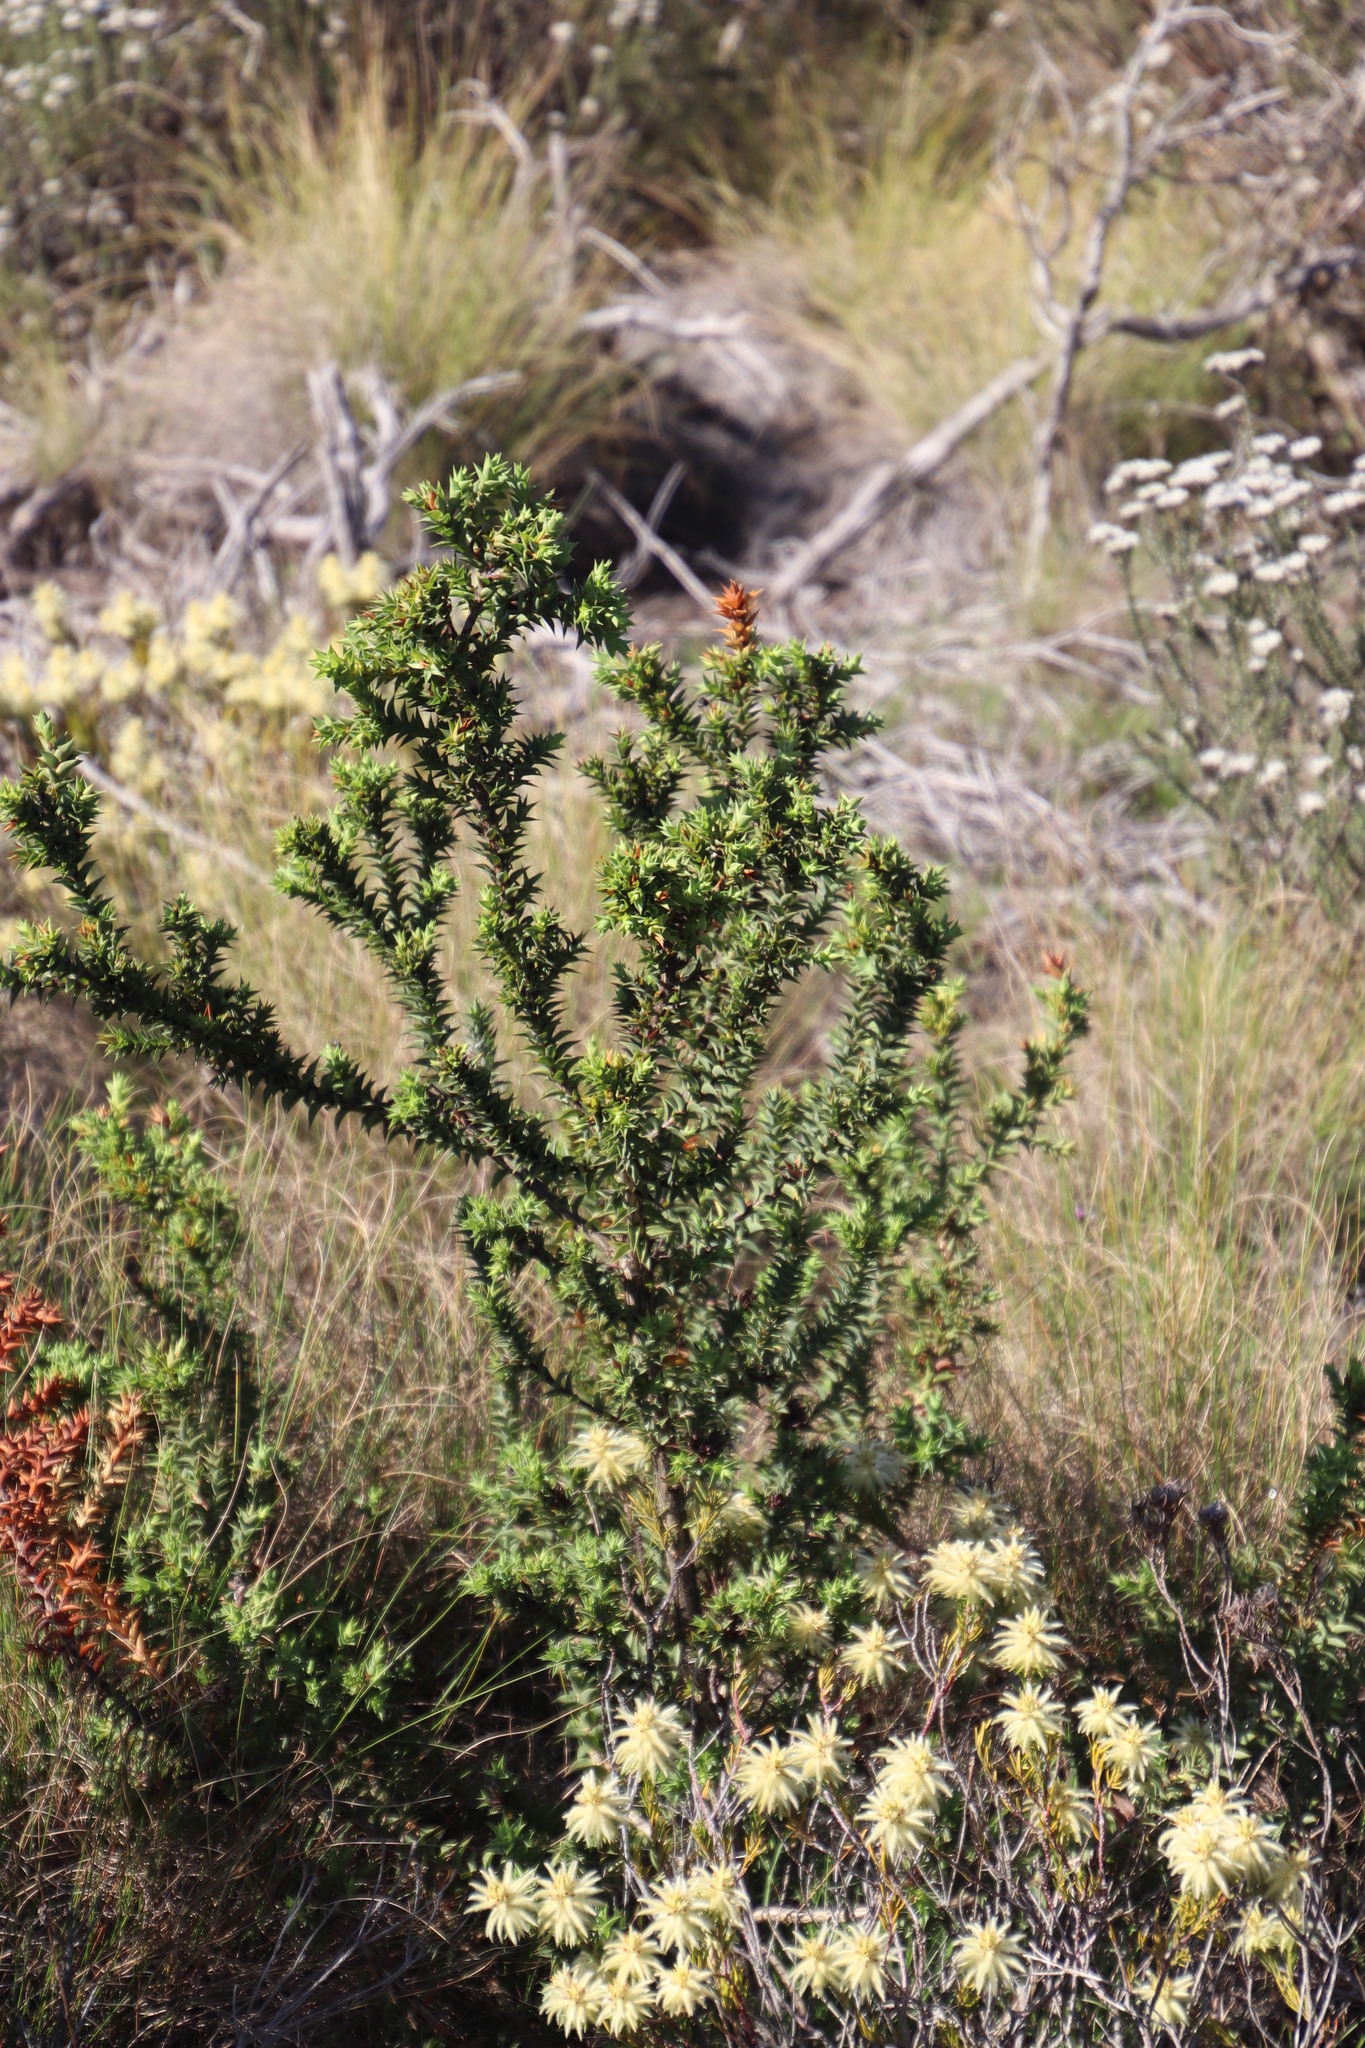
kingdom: Plantae
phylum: Tracheophyta
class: Magnoliopsida
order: Fabales
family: Fabaceae
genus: Aspalathus
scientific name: Aspalathus cordata
